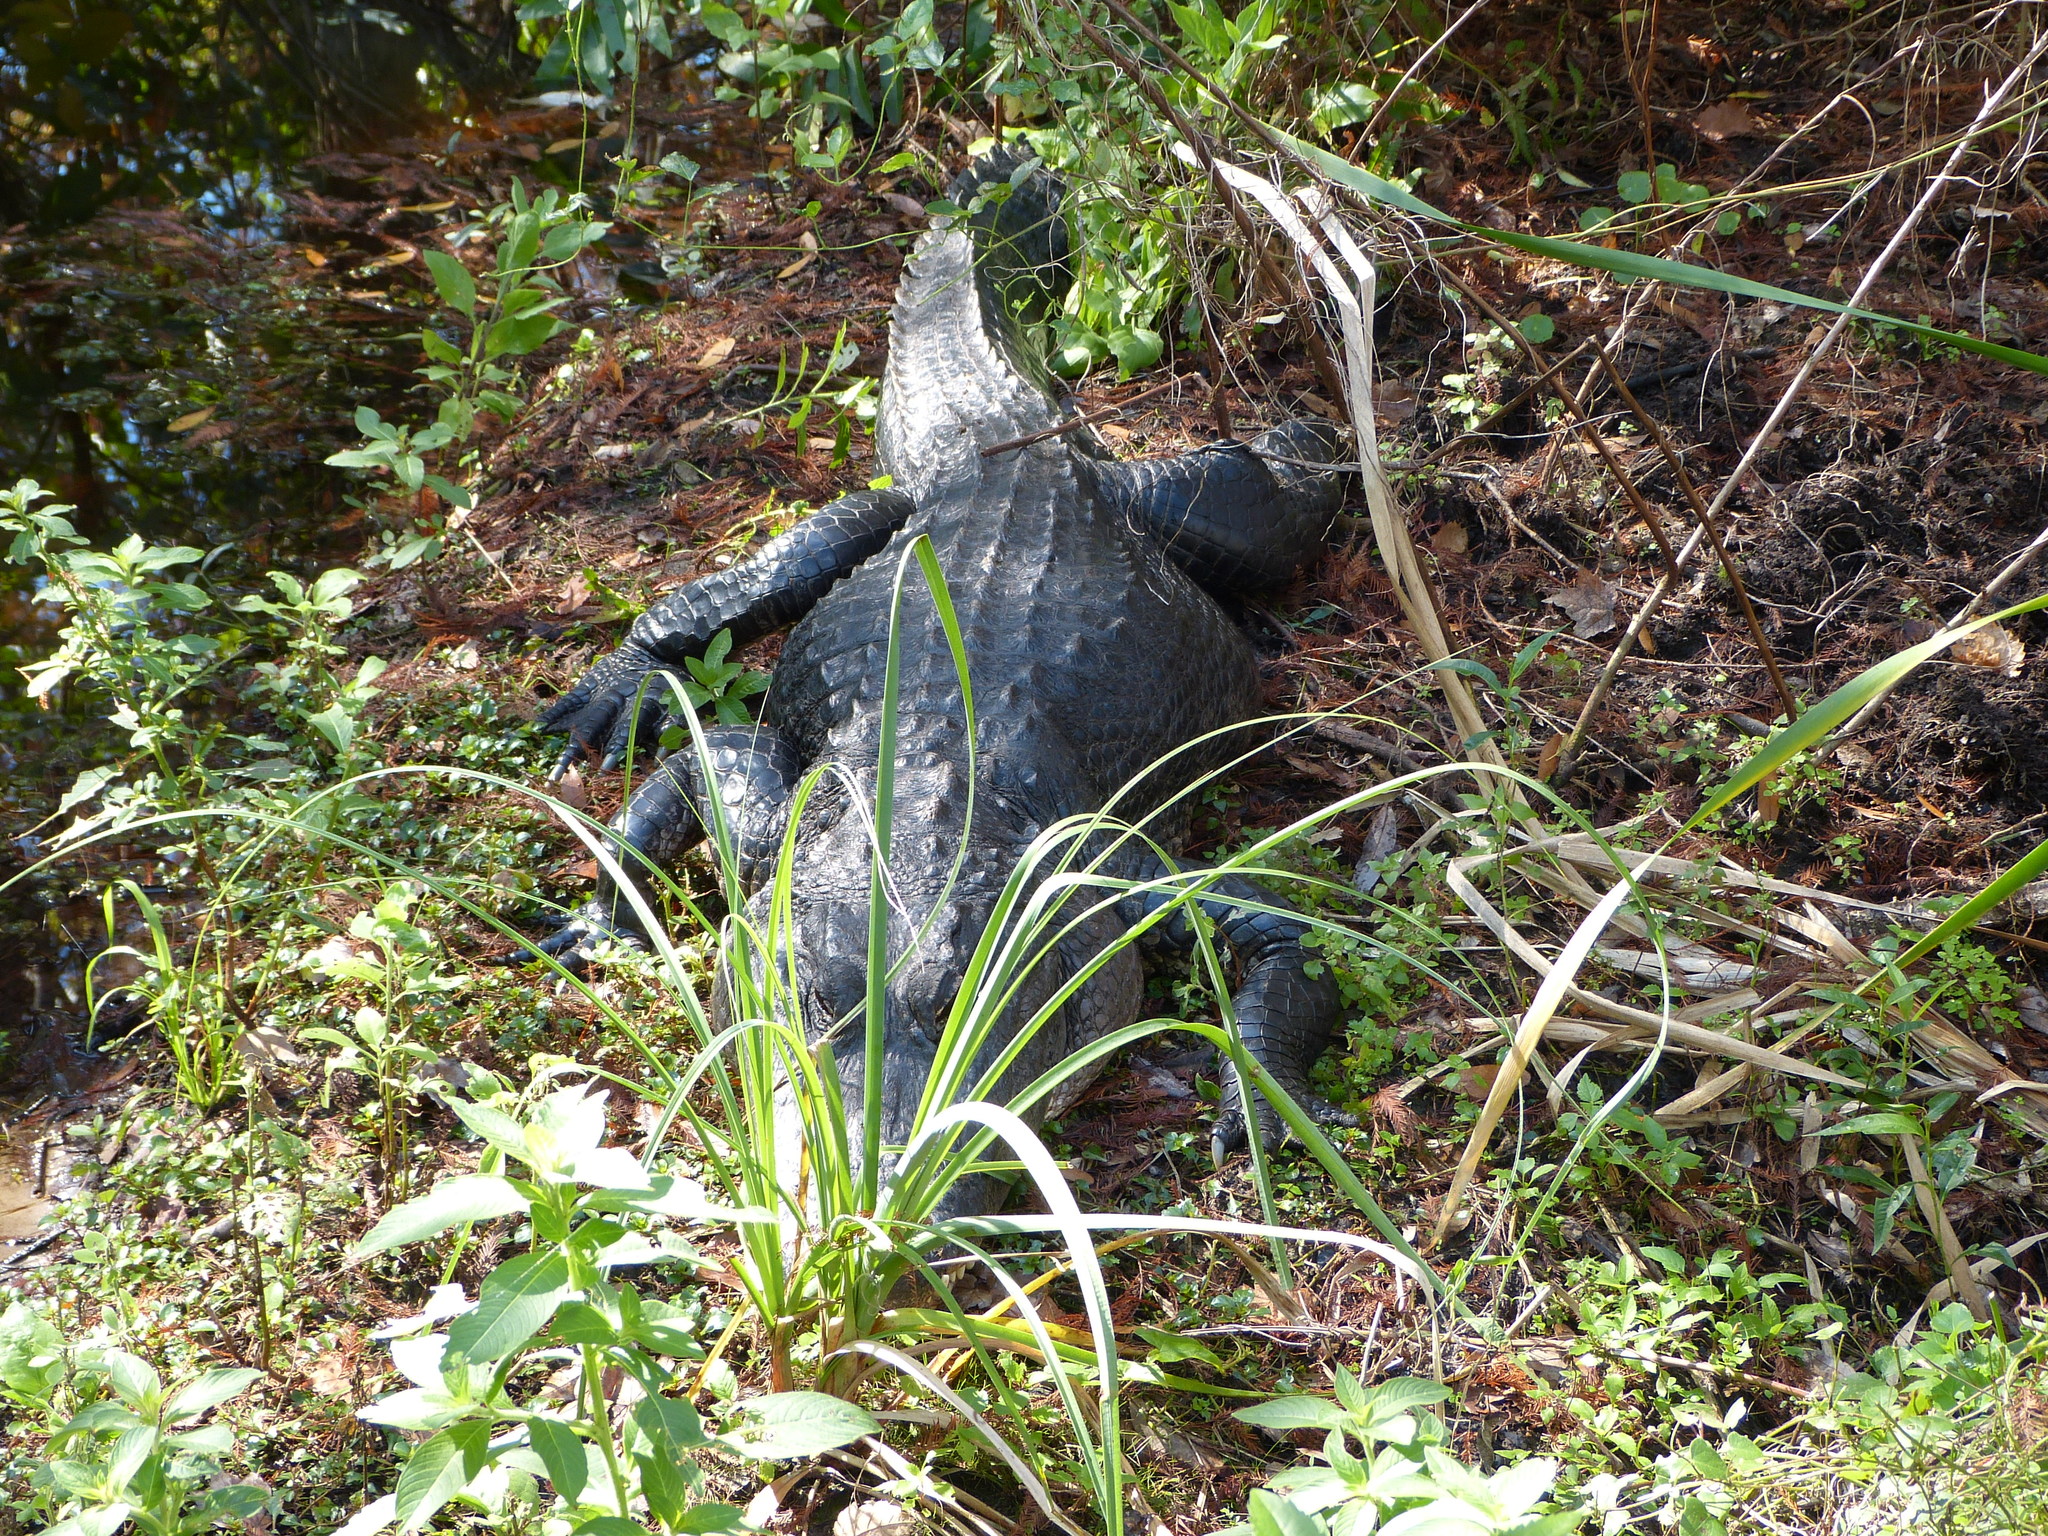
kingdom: Animalia
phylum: Chordata
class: Crocodylia
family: Alligatoridae
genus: Alligator
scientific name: Alligator mississippiensis
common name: American alligator
